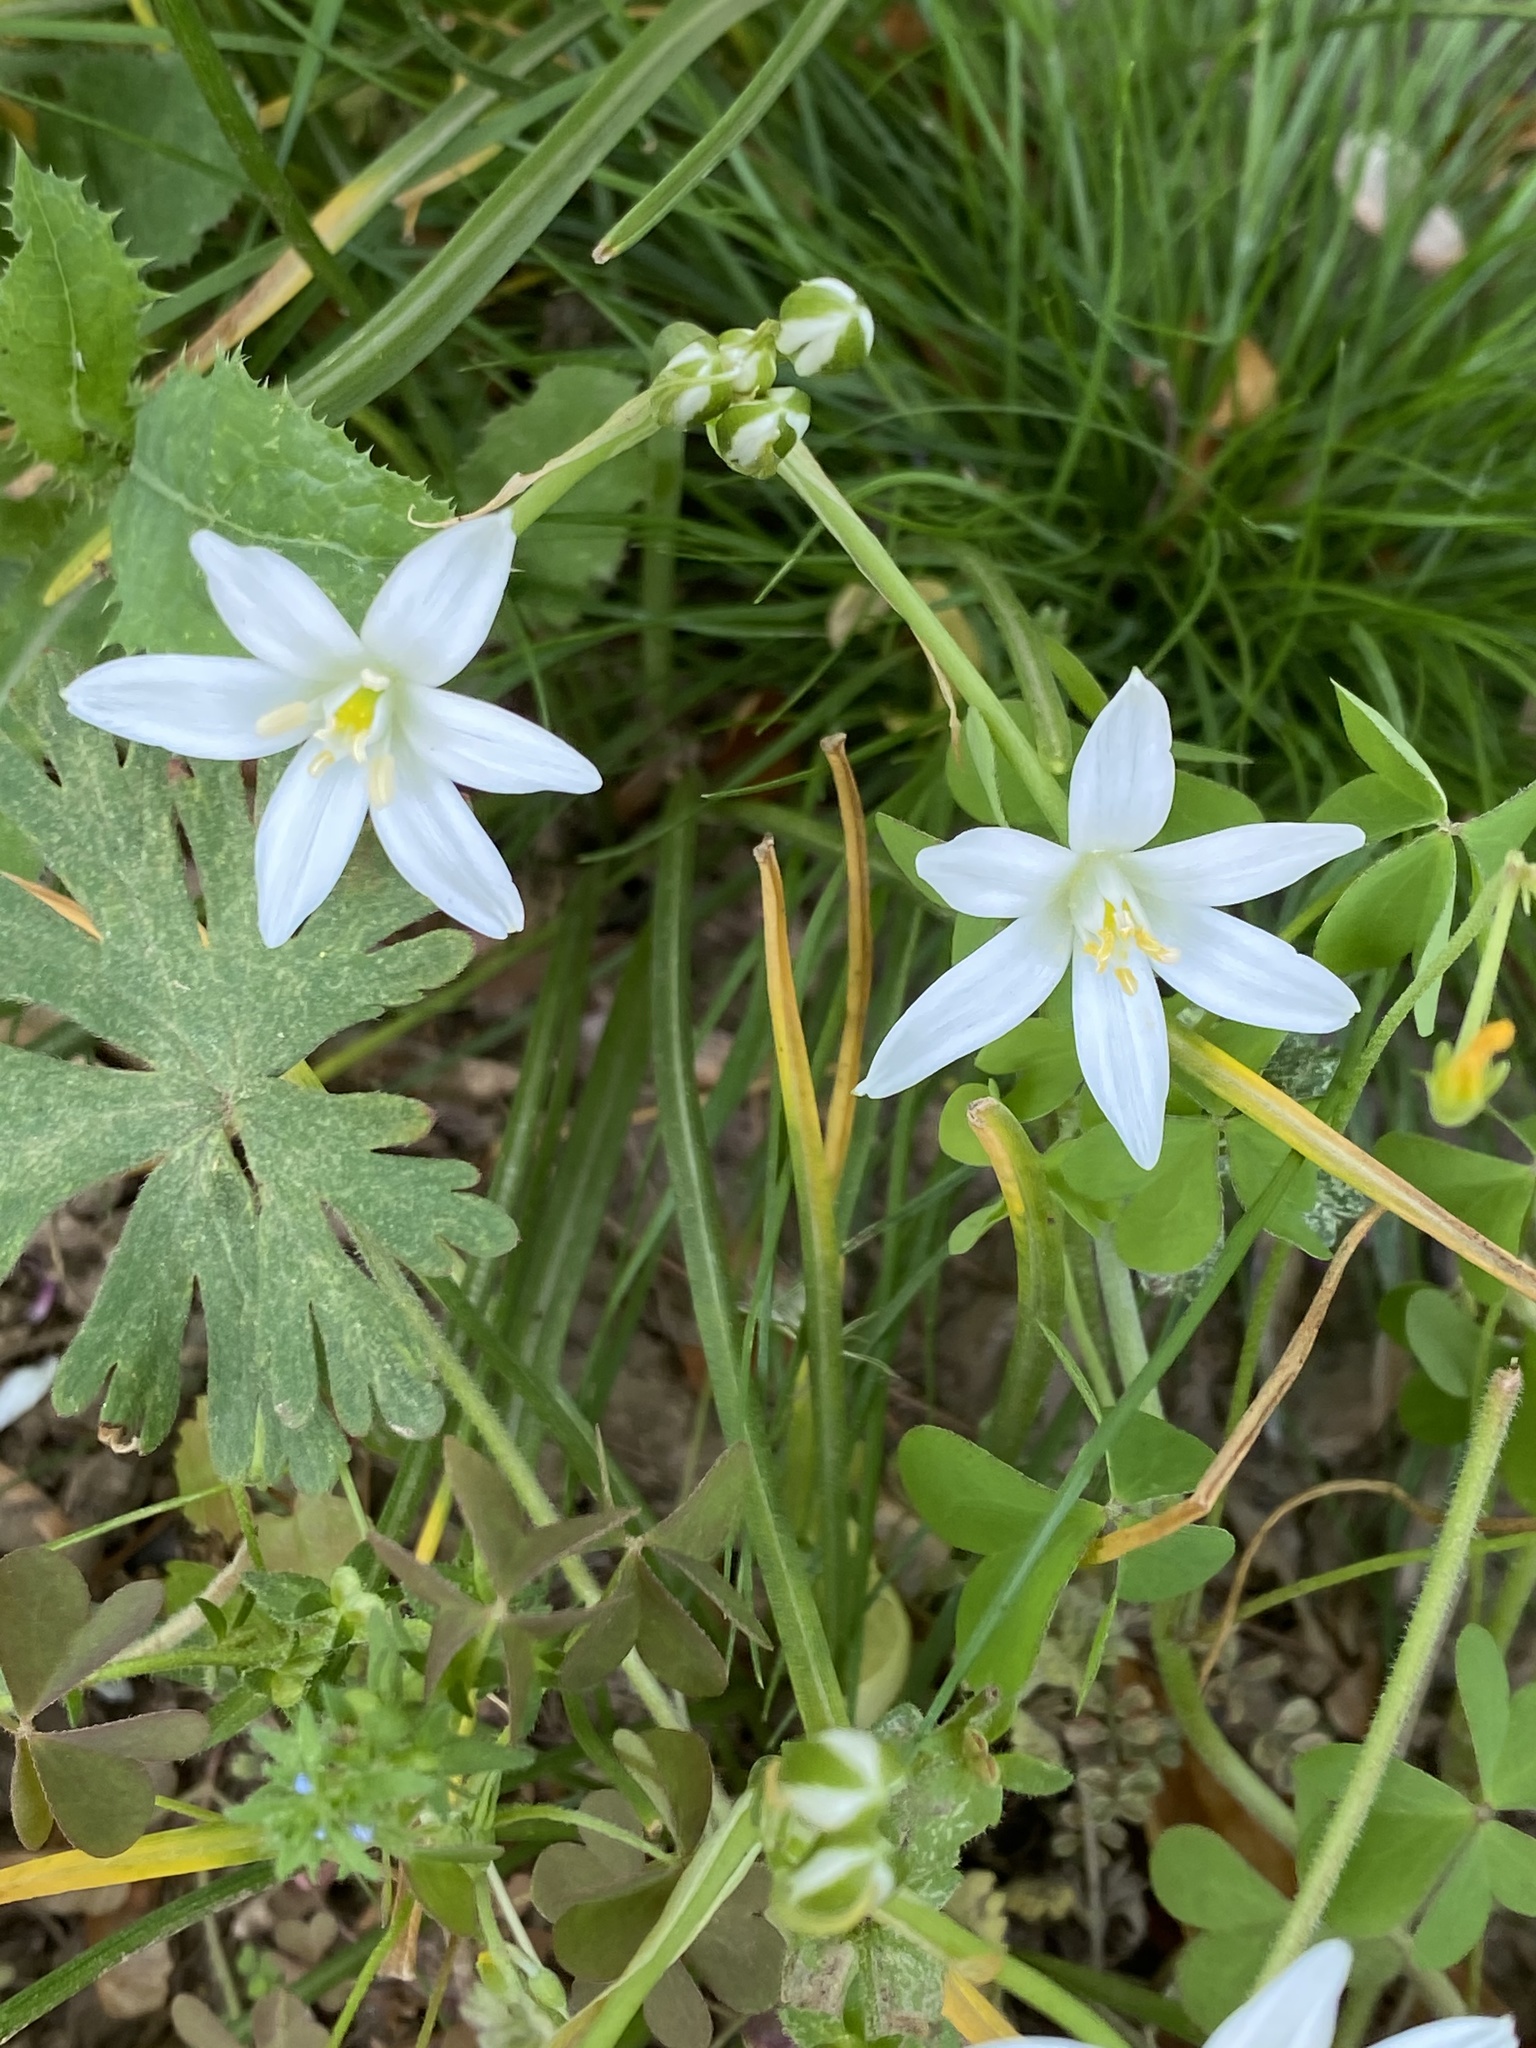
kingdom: Plantae
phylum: Tracheophyta
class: Liliopsida
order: Asparagales
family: Asparagaceae
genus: Ornithogalum
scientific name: Ornithogalum umbellatum
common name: Garden star-of-bethlehem
